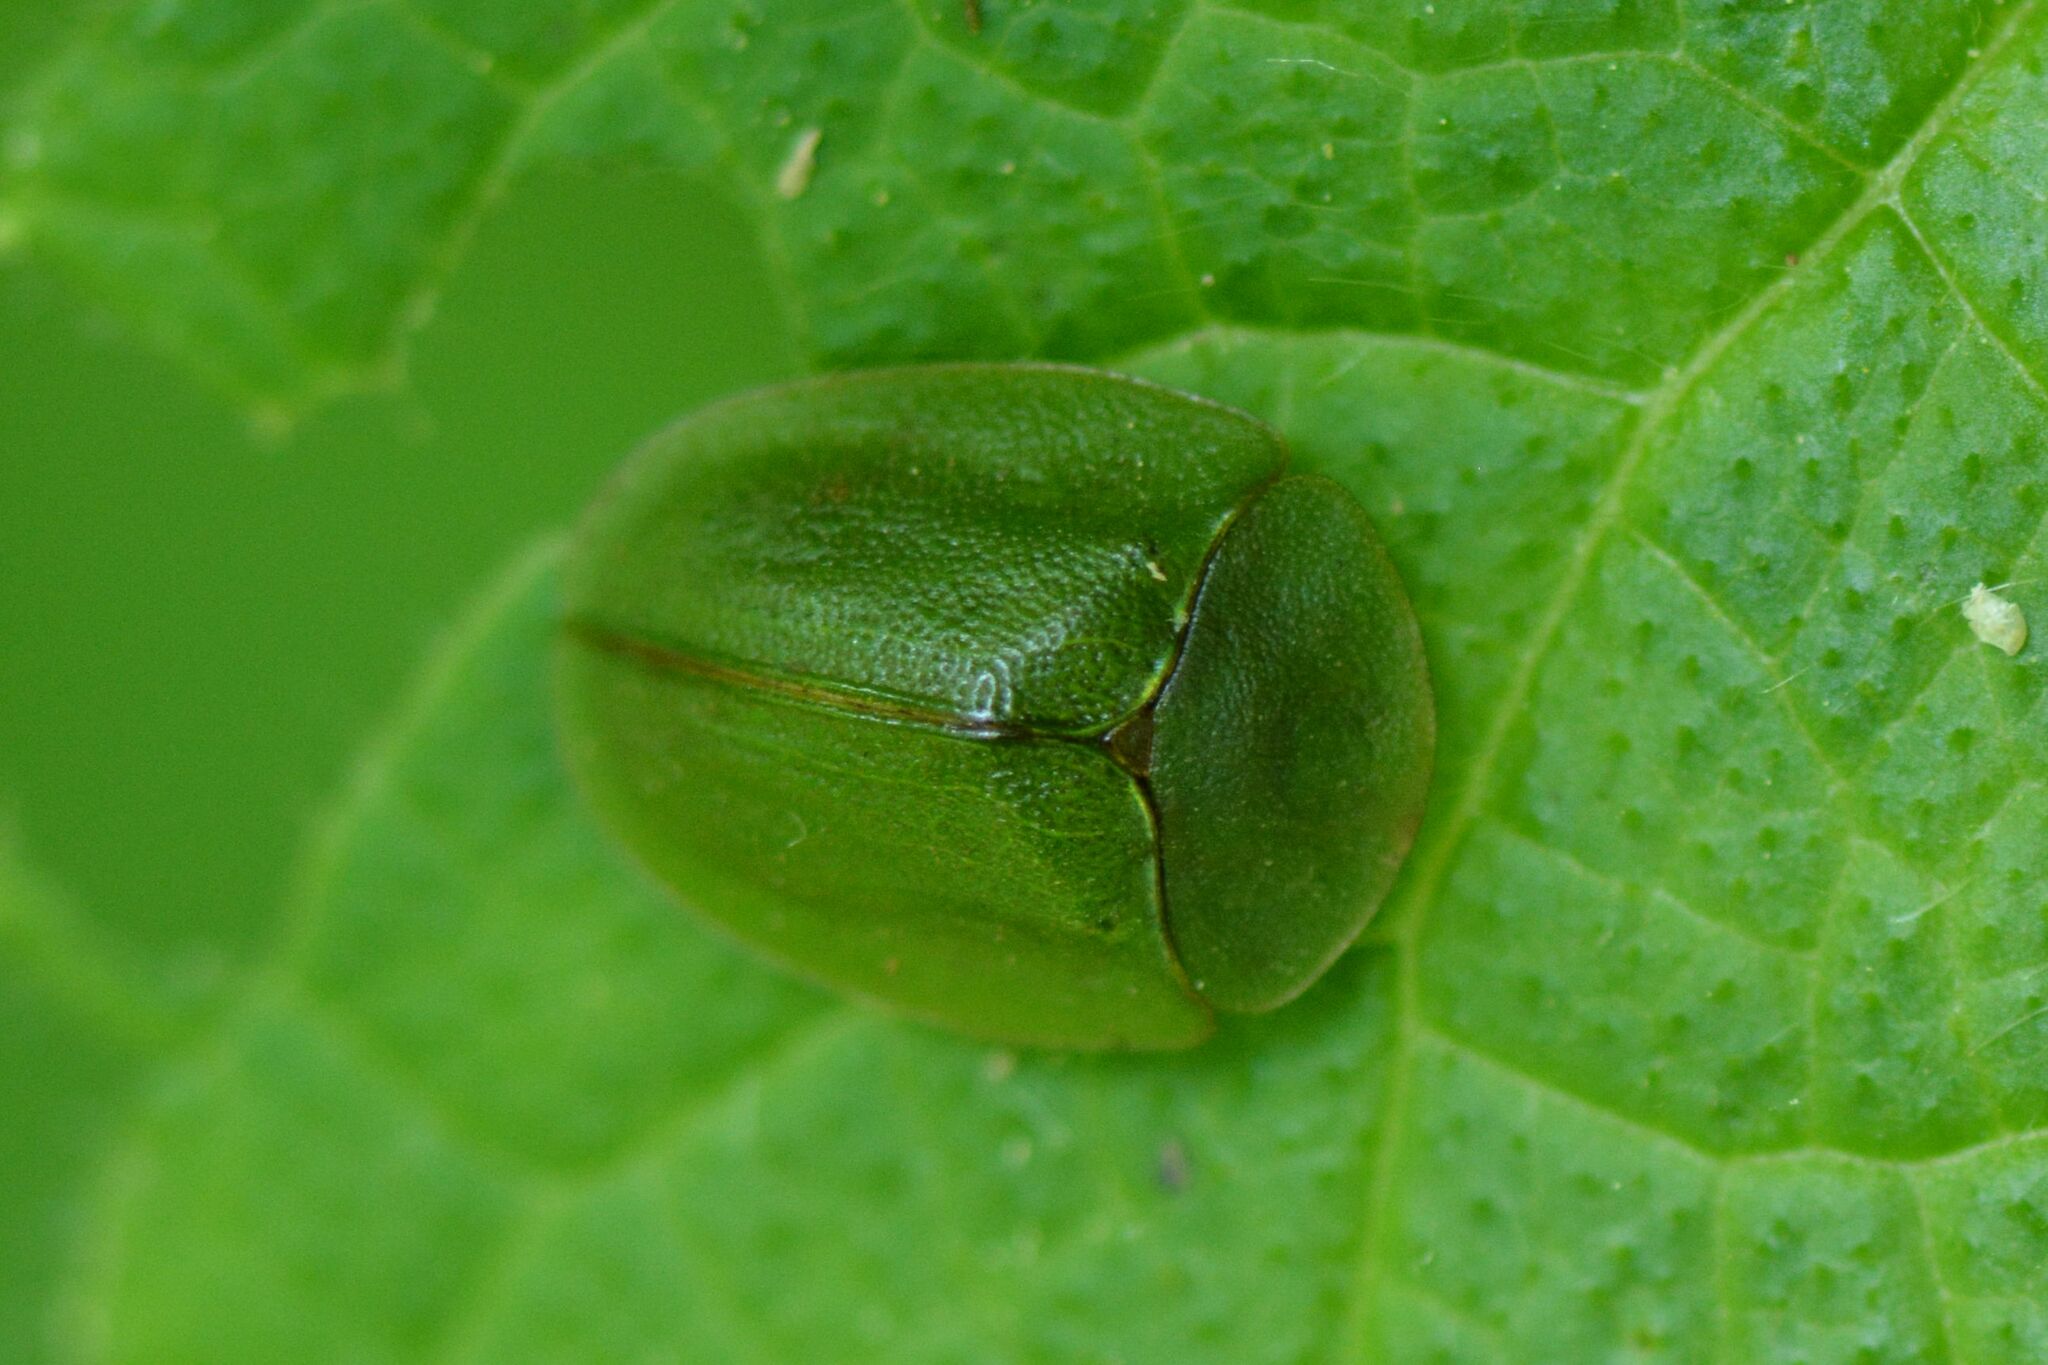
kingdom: Animalia
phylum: Arthropoda
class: Insecta
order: Coleoptera
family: Chrysomelidae
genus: Cassida
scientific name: Cassida viridis
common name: Green tortoise beetle
